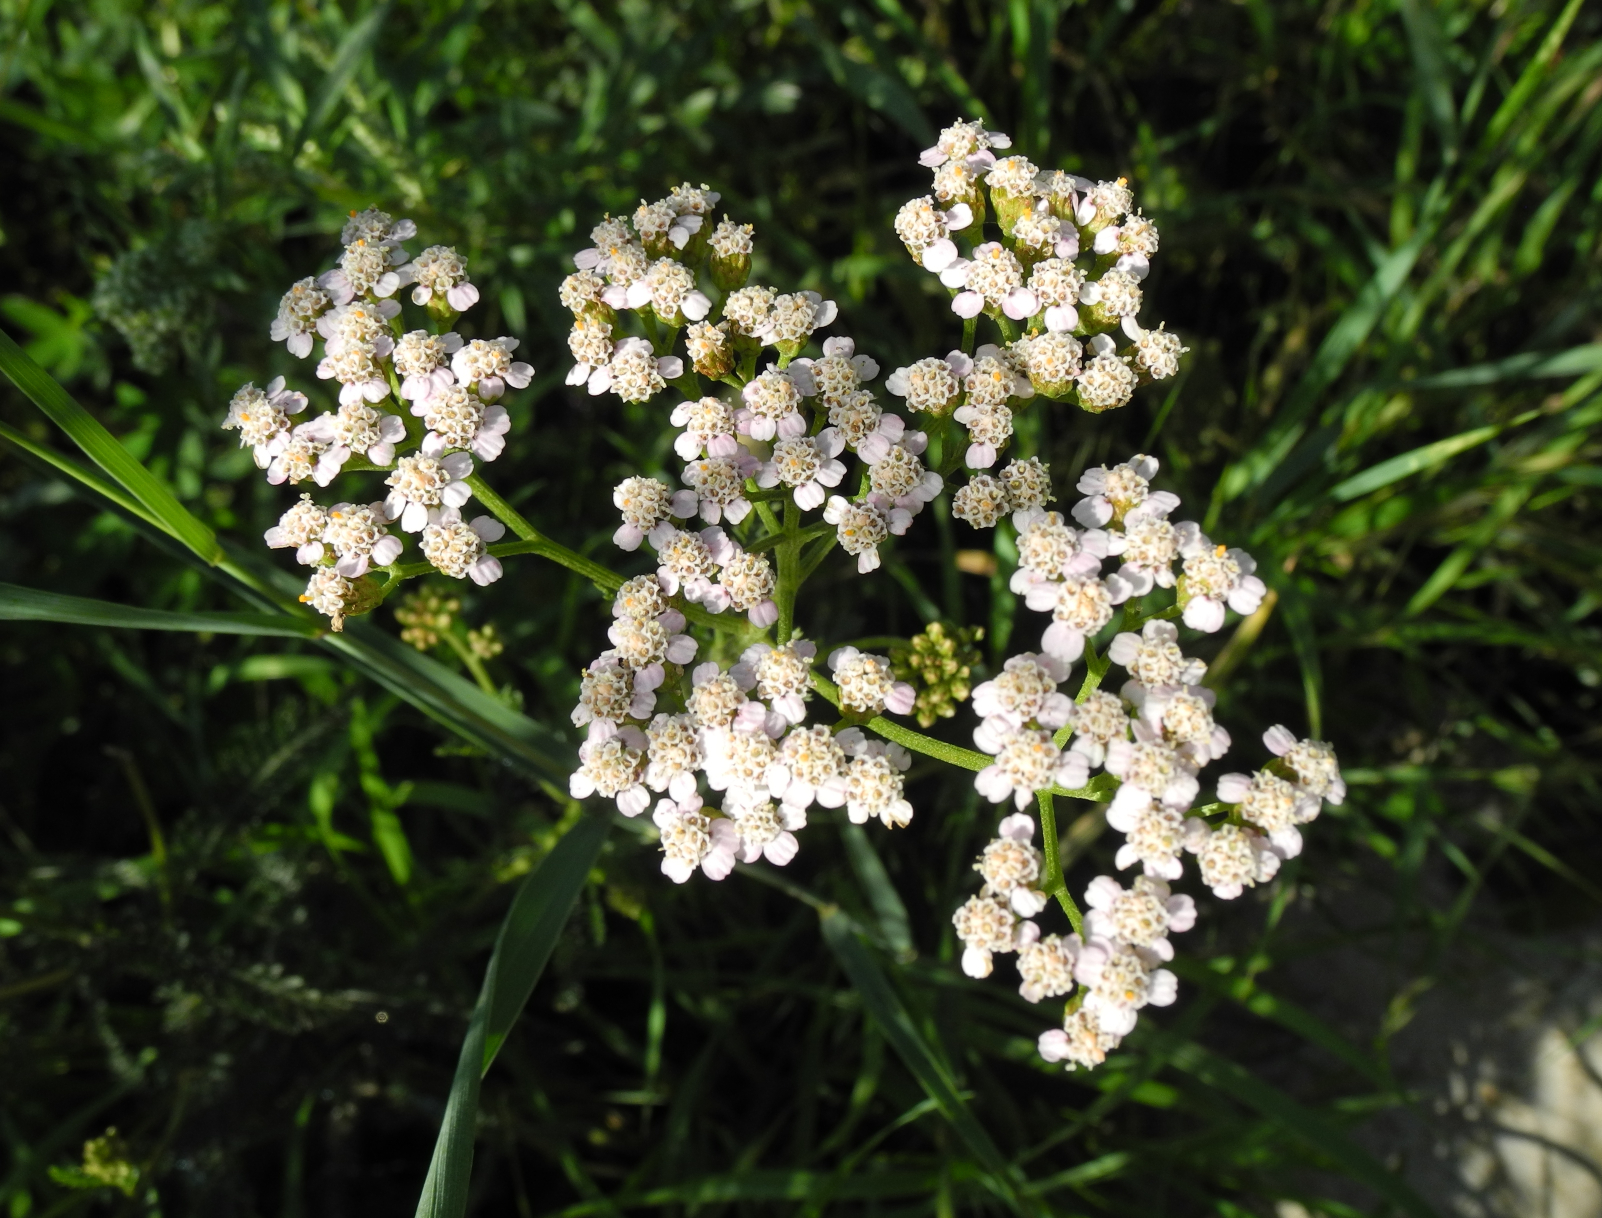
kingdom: Plantae
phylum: Tracheophyta
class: Magnoliopsida
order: Asterales
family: Asteraceae
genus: Achillea
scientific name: Achillea millefolium
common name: Yarrow
